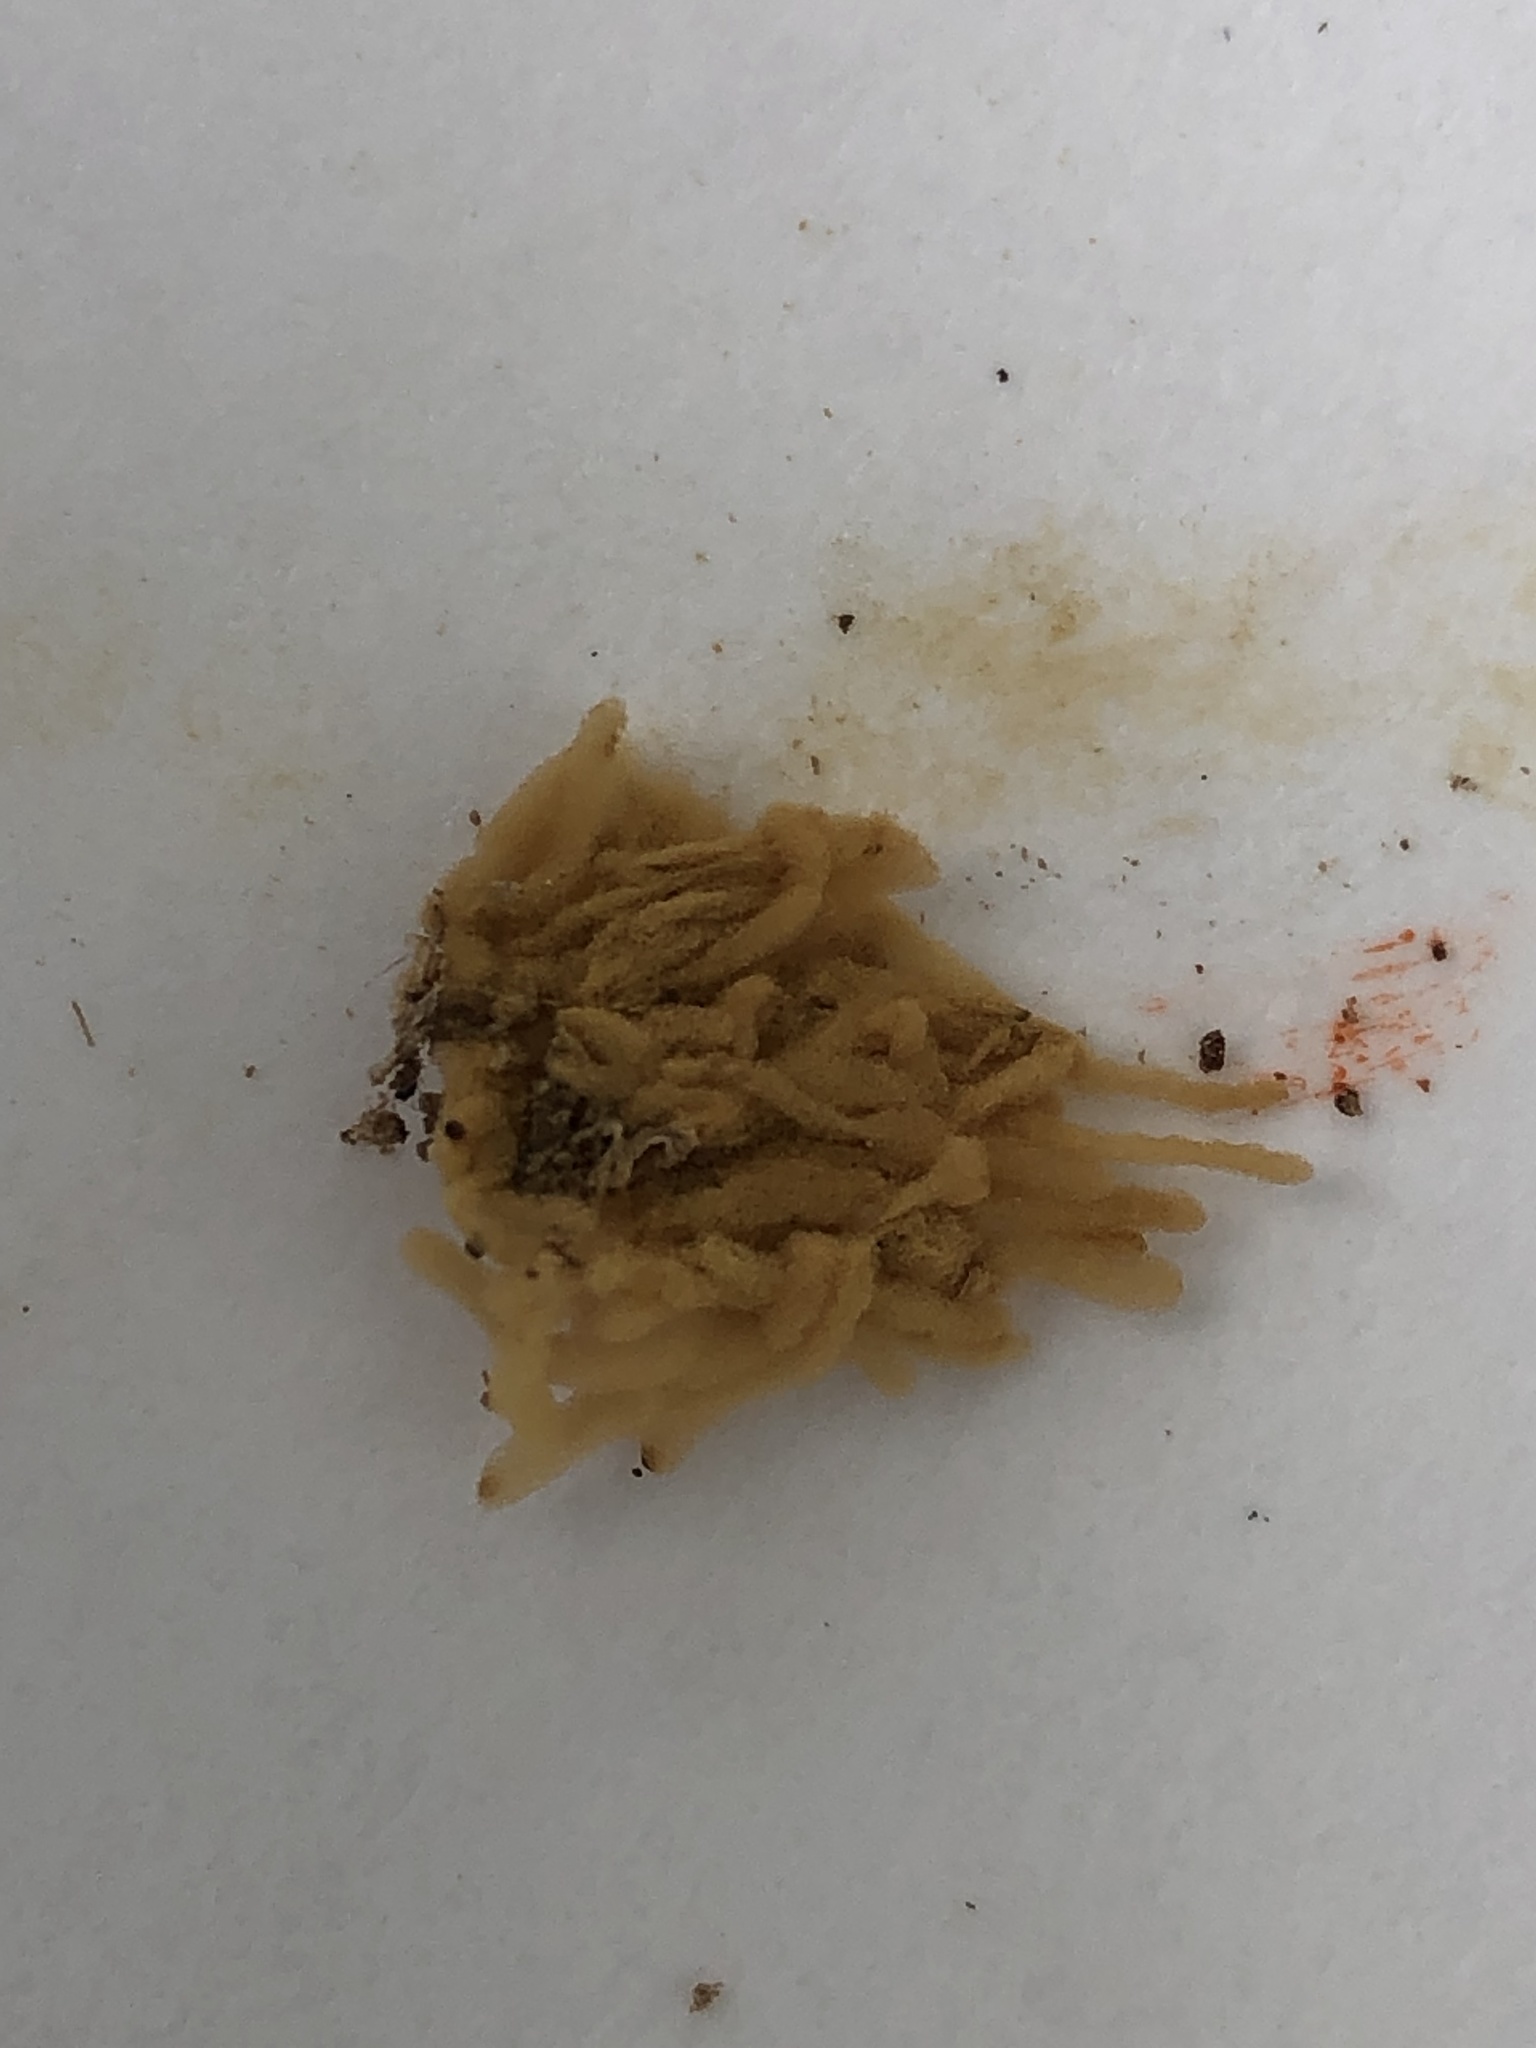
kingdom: Protozoa
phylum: Mycetozoa
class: Myxomycetes
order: Trichiales
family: Arcyriaceae
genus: Arcyria
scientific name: Arcyria obvelata
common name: Yellow carnival candy slime
